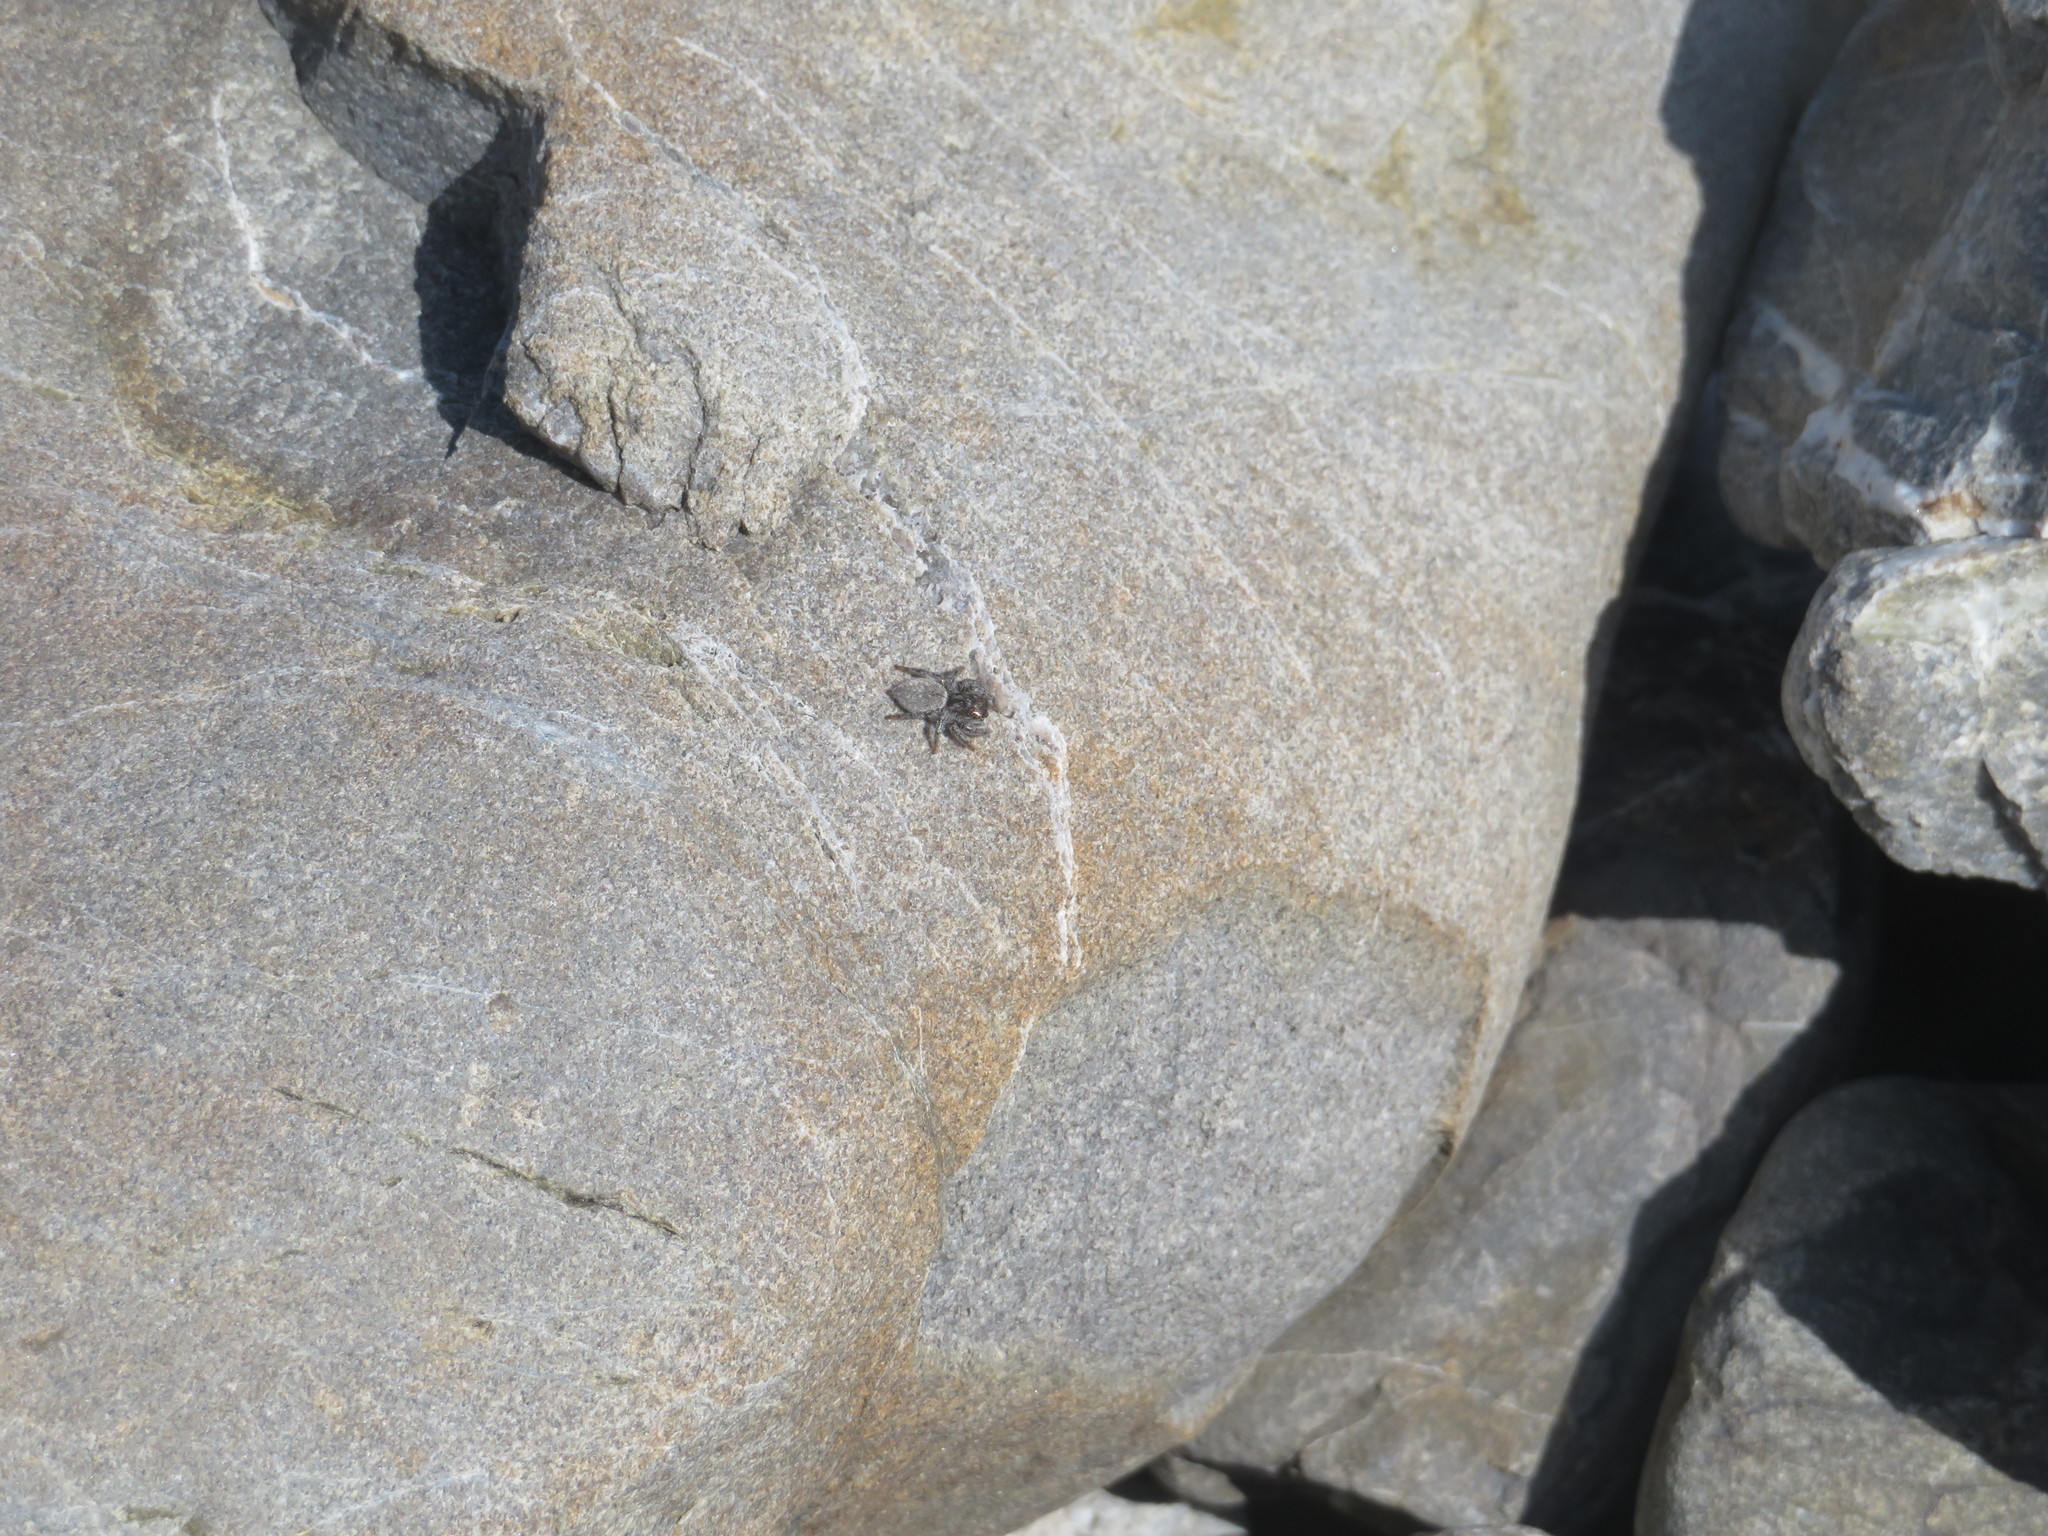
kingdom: Animalia
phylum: Arthropoda
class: Arachnida
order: Araneae
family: Salticidae
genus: Marpissa
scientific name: Marpissa marina
